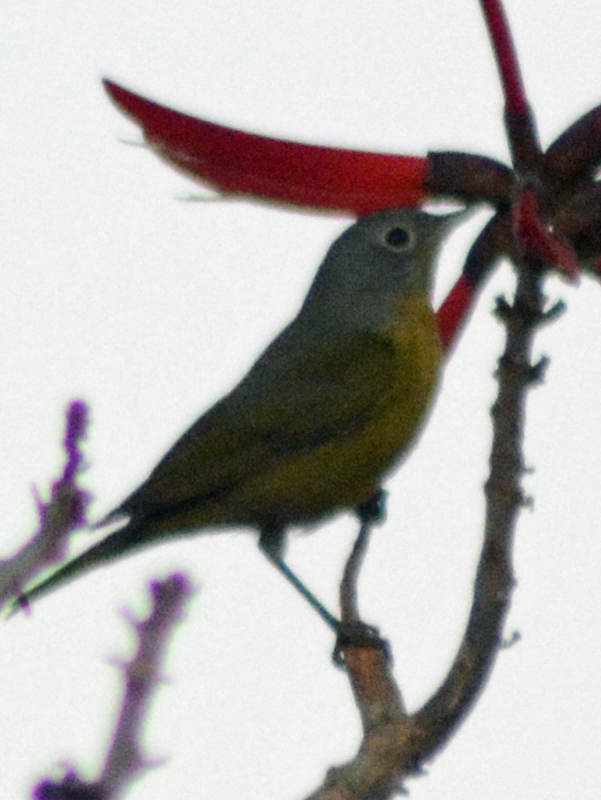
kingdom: Animalia
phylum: Chordata
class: Aves
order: Passeriformes
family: Parulidae
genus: Leiothlypis
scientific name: Leiothlypis ruficapilla
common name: Nashville warbler
